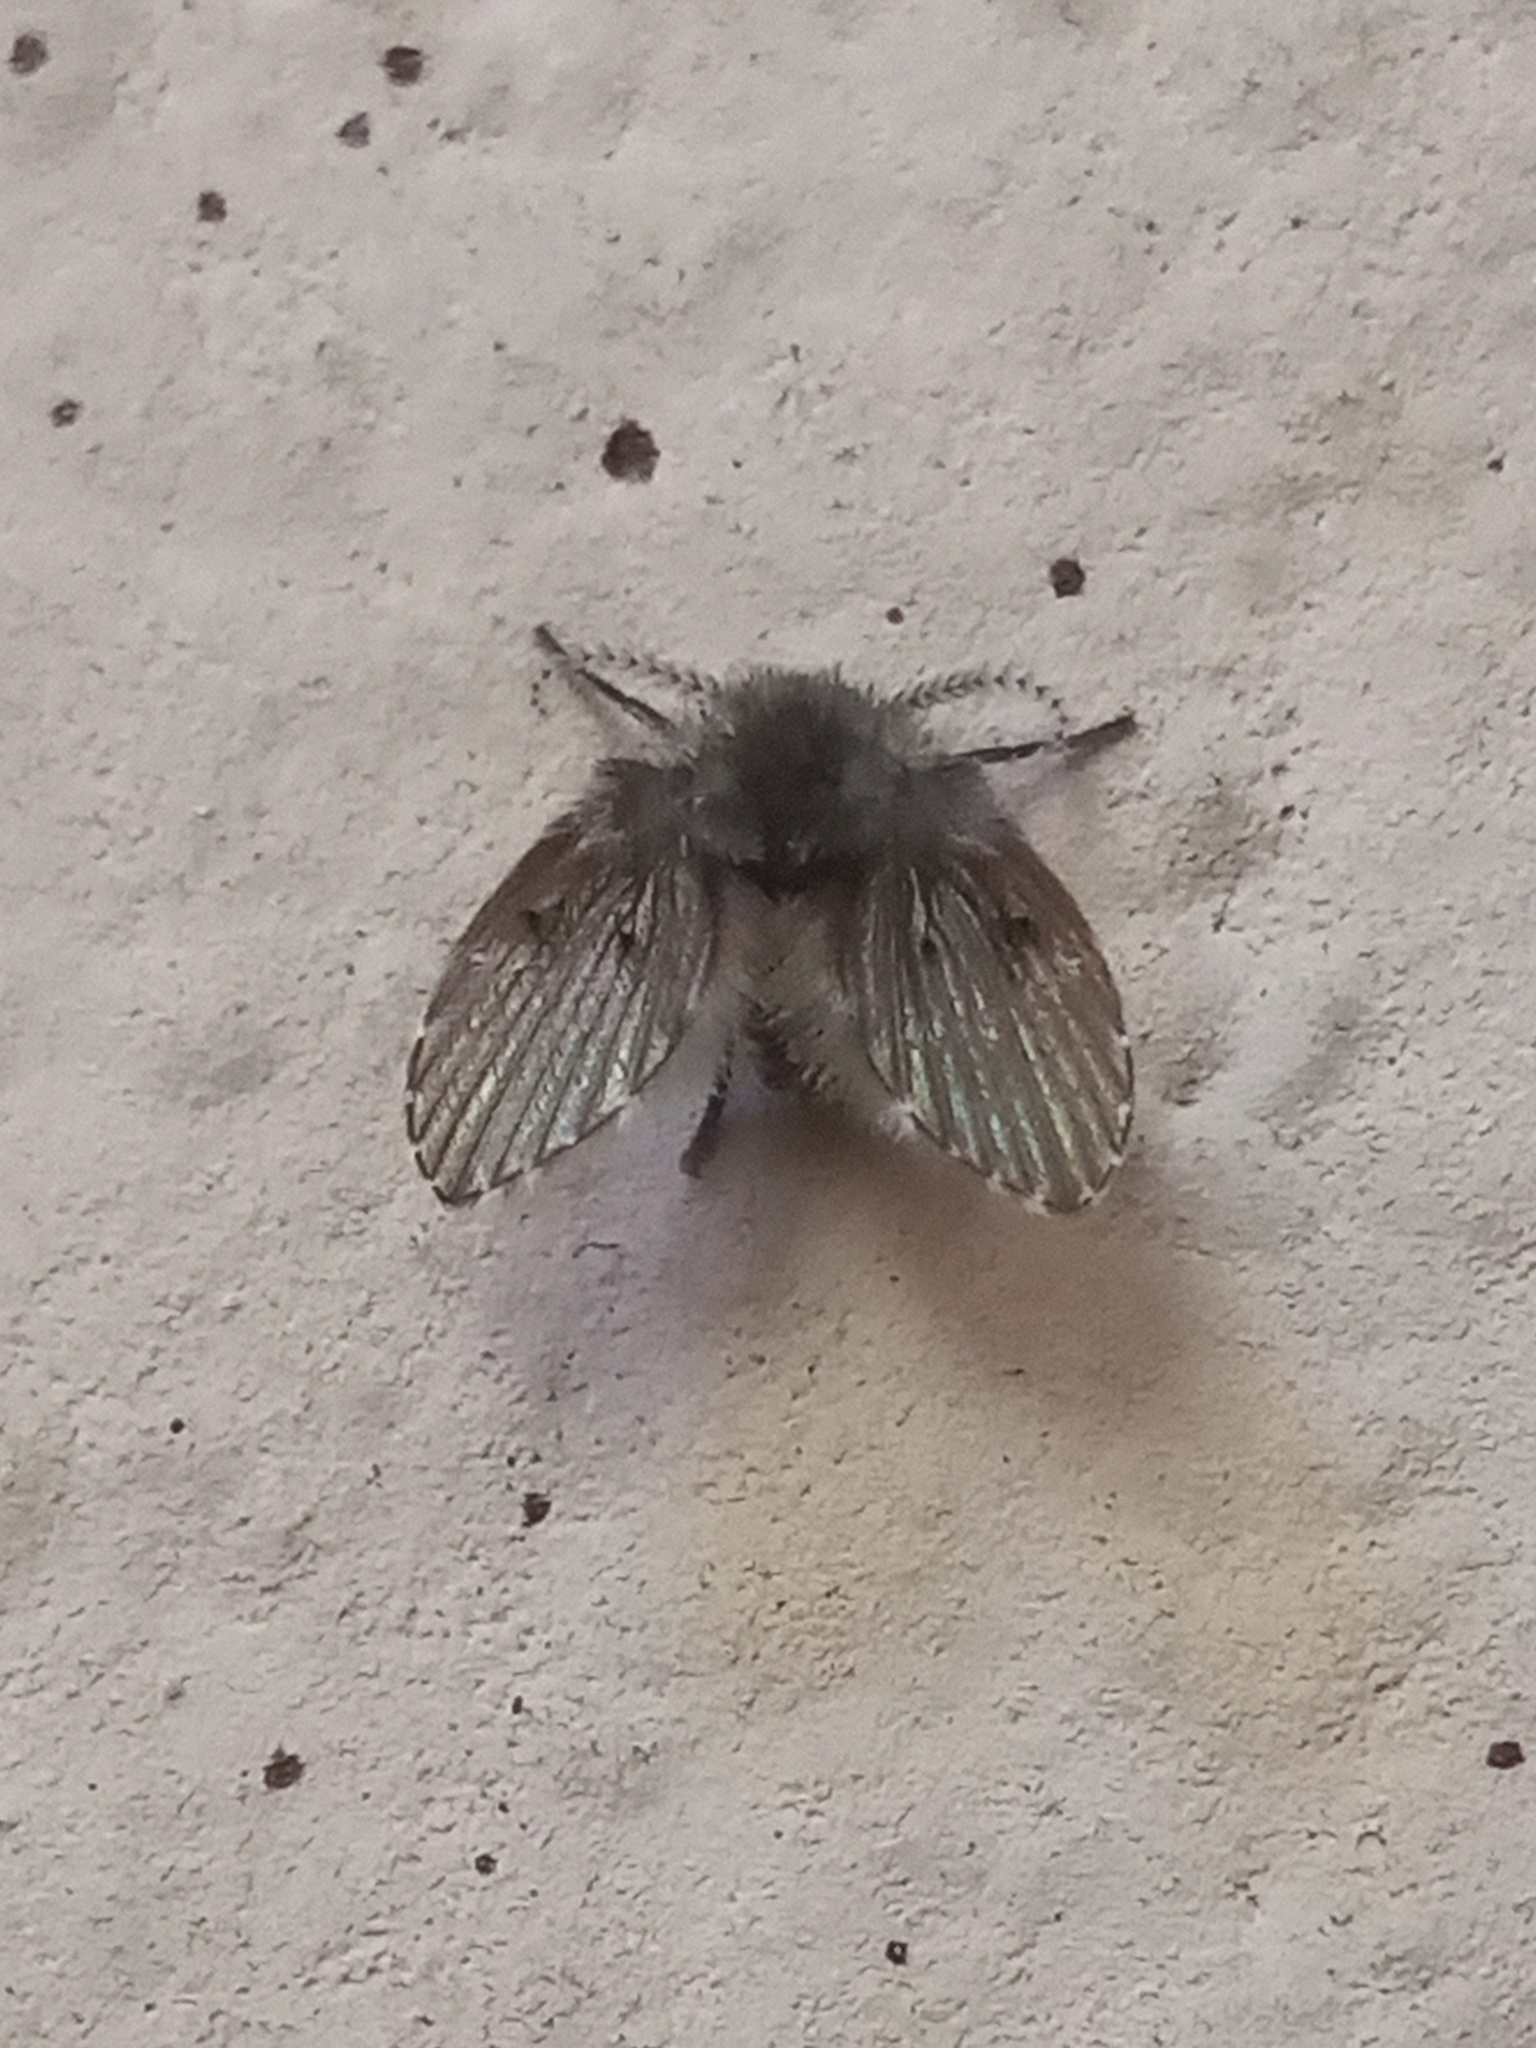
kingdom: Animalia
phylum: Arthropoda
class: Insecta
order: Diptera
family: Psychodidae
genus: Clogmia
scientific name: Clogmia albipunctatus
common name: White-spotted moth fly
